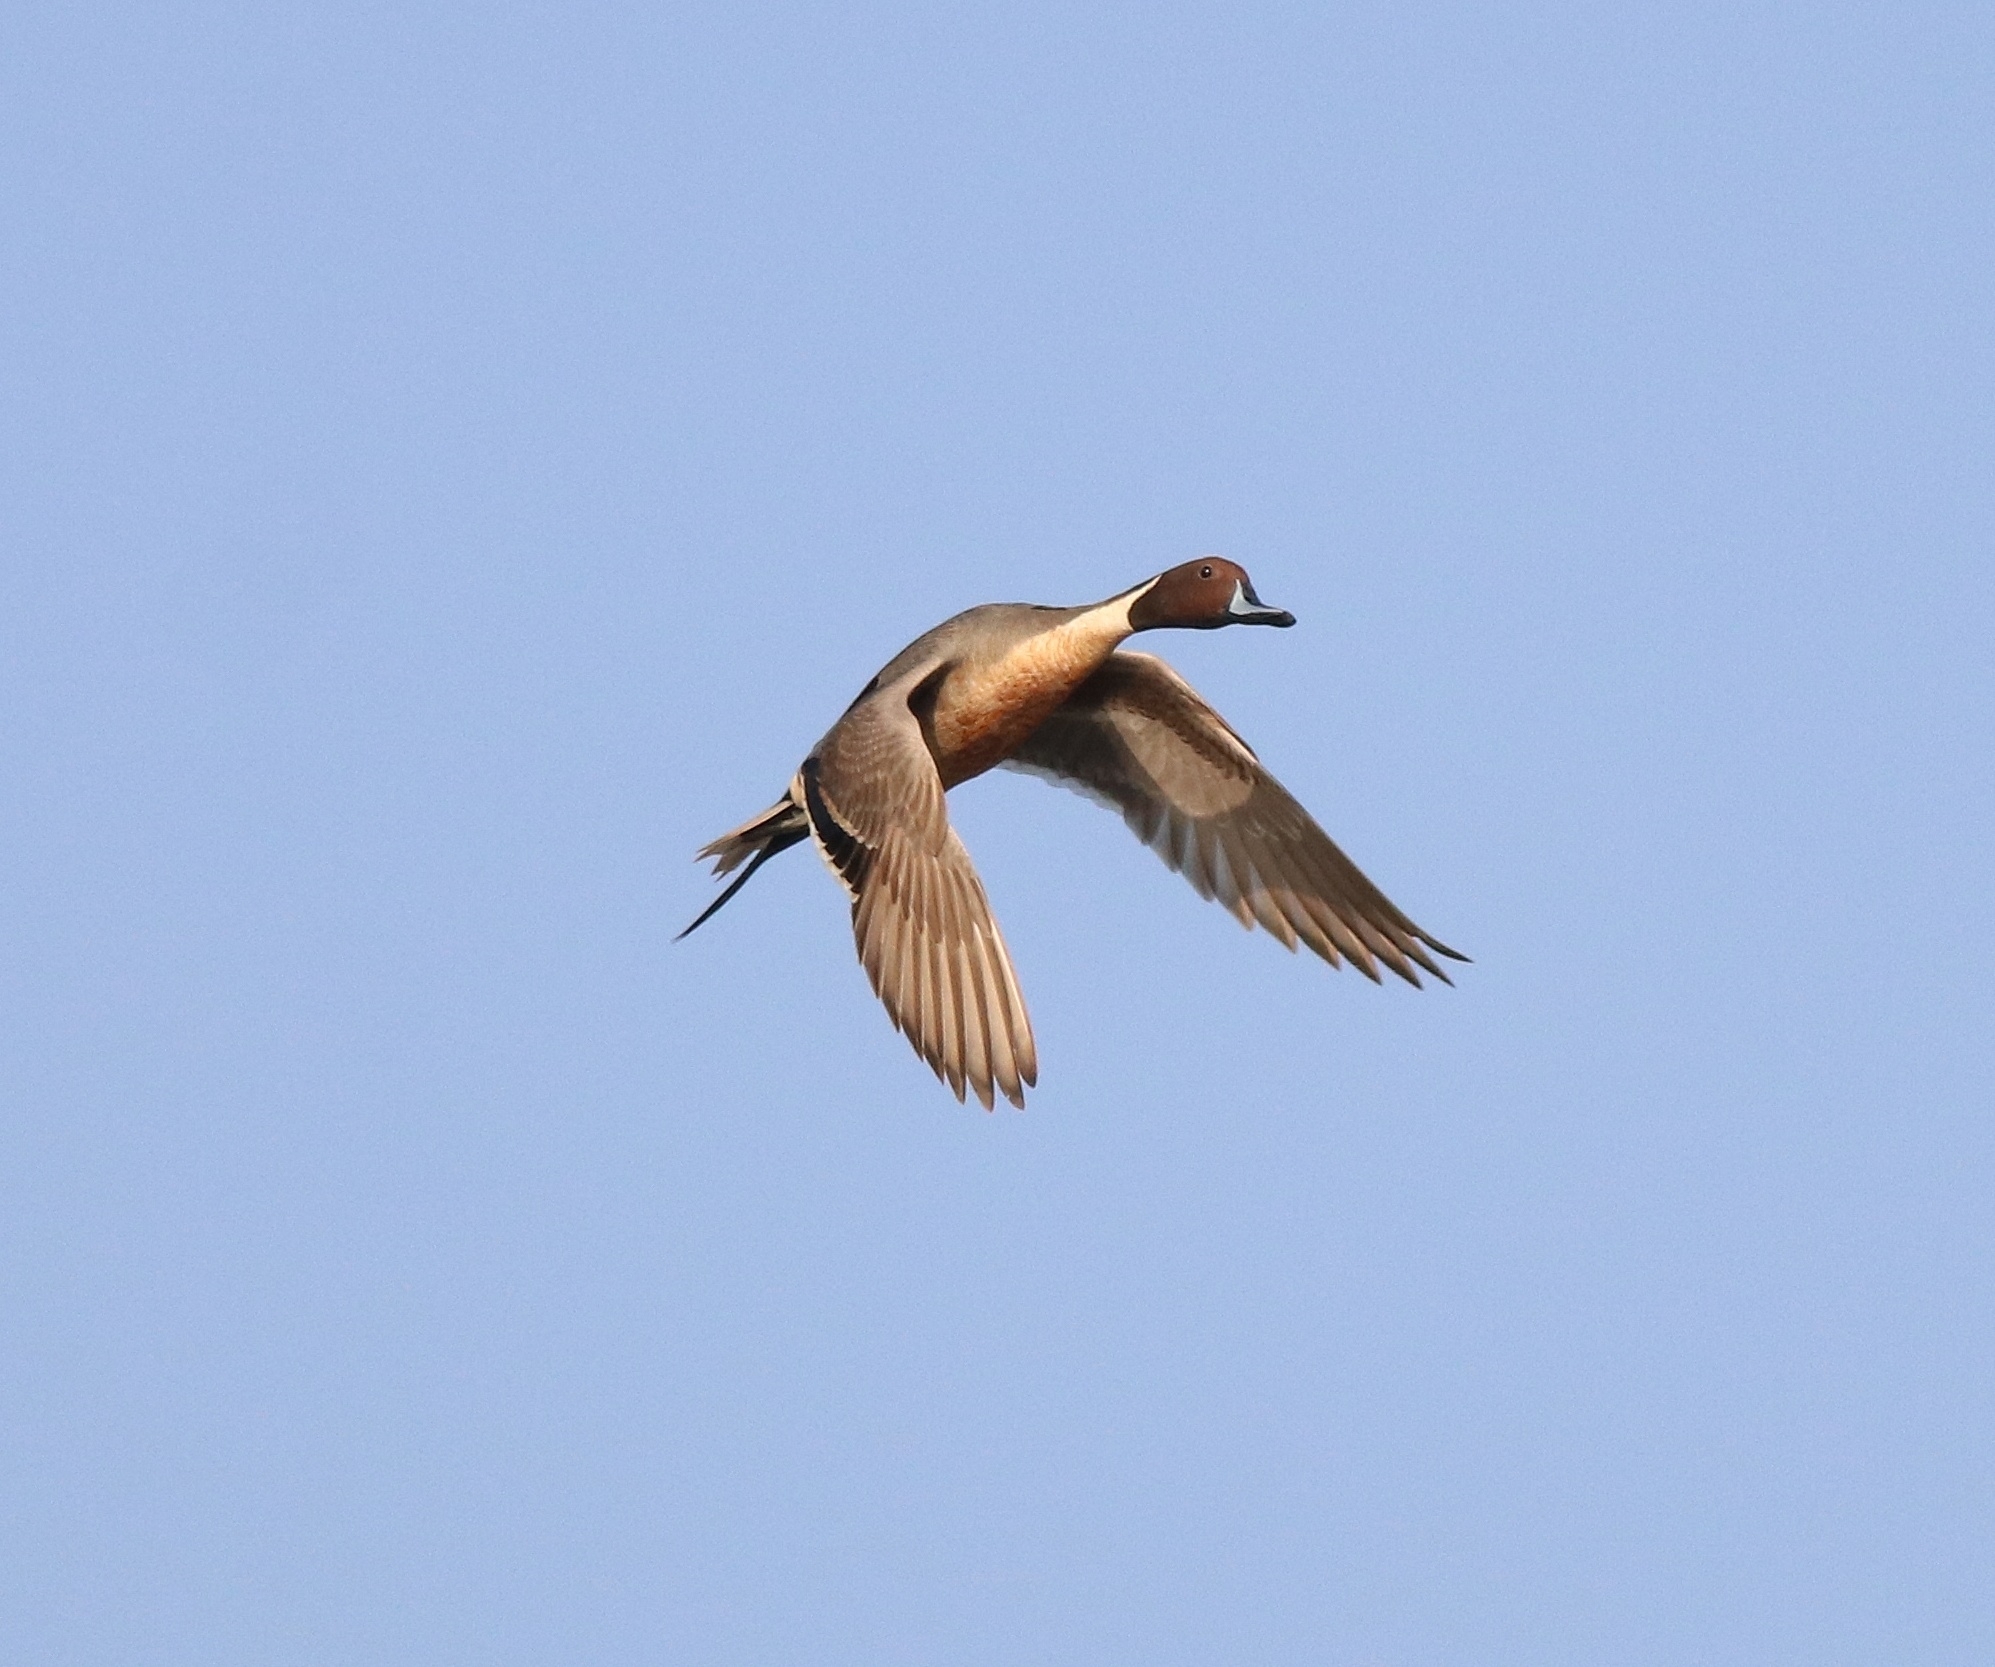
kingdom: Animalia
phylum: Chordata
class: Aves
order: Anseriformes
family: Anatidae
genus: Anas
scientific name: Anas acuta
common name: Northern pintail
